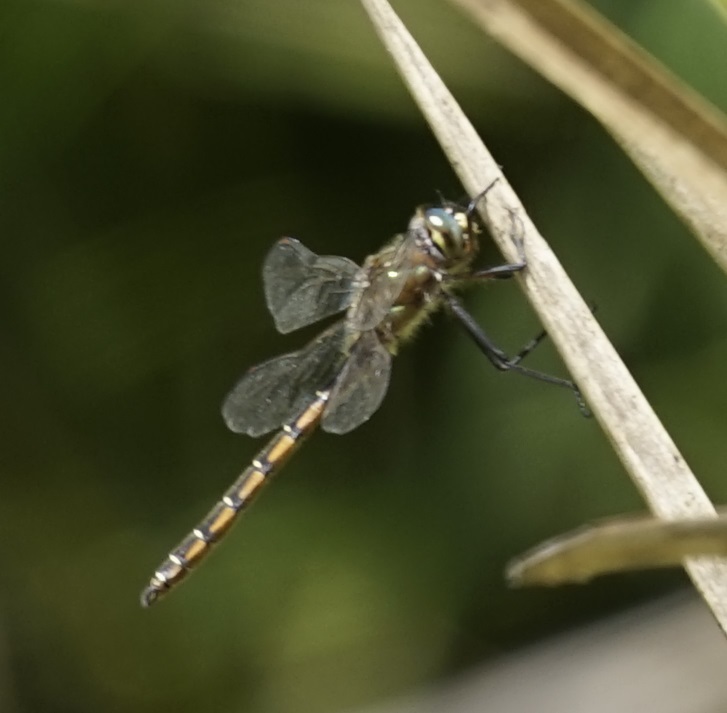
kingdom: Animalia
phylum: Arthropoda
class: Insecta
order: Odonata
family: Corduliidae
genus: Procordulia
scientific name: Procordulia jacksoniensis
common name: Eastern swamp emerald
